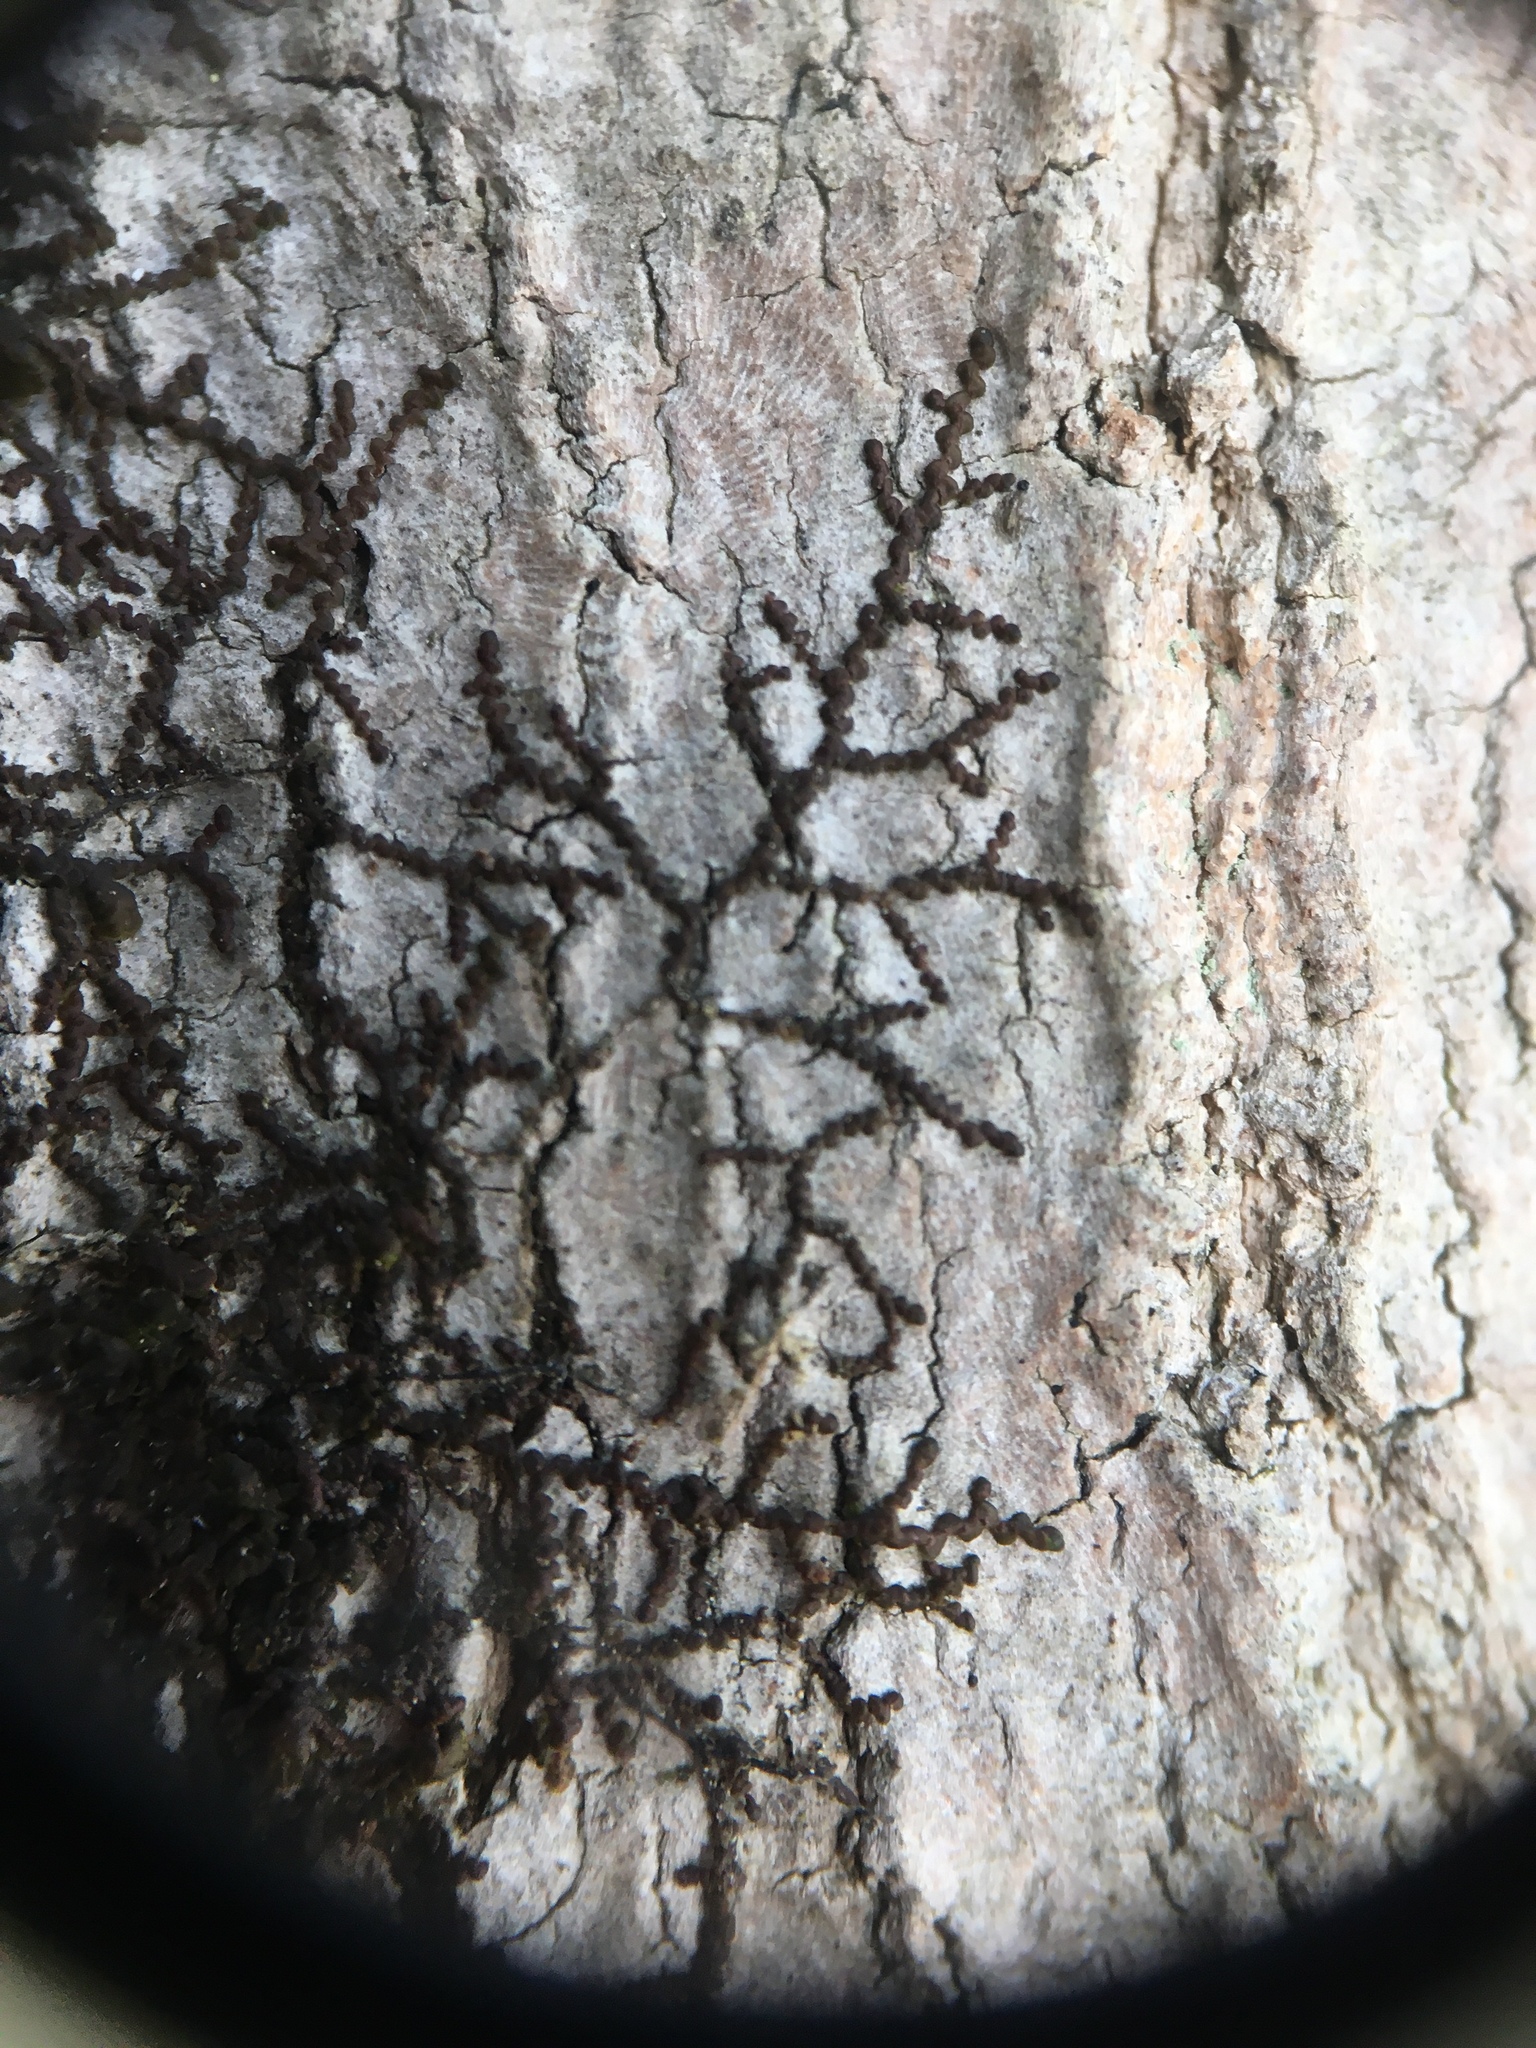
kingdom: Plantae
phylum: Marchantiophyta
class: Jungermanniopsida
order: Porellales
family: Frullaniaceae
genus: Frullania
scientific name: Frullania eboracensis
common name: New york scalewort
